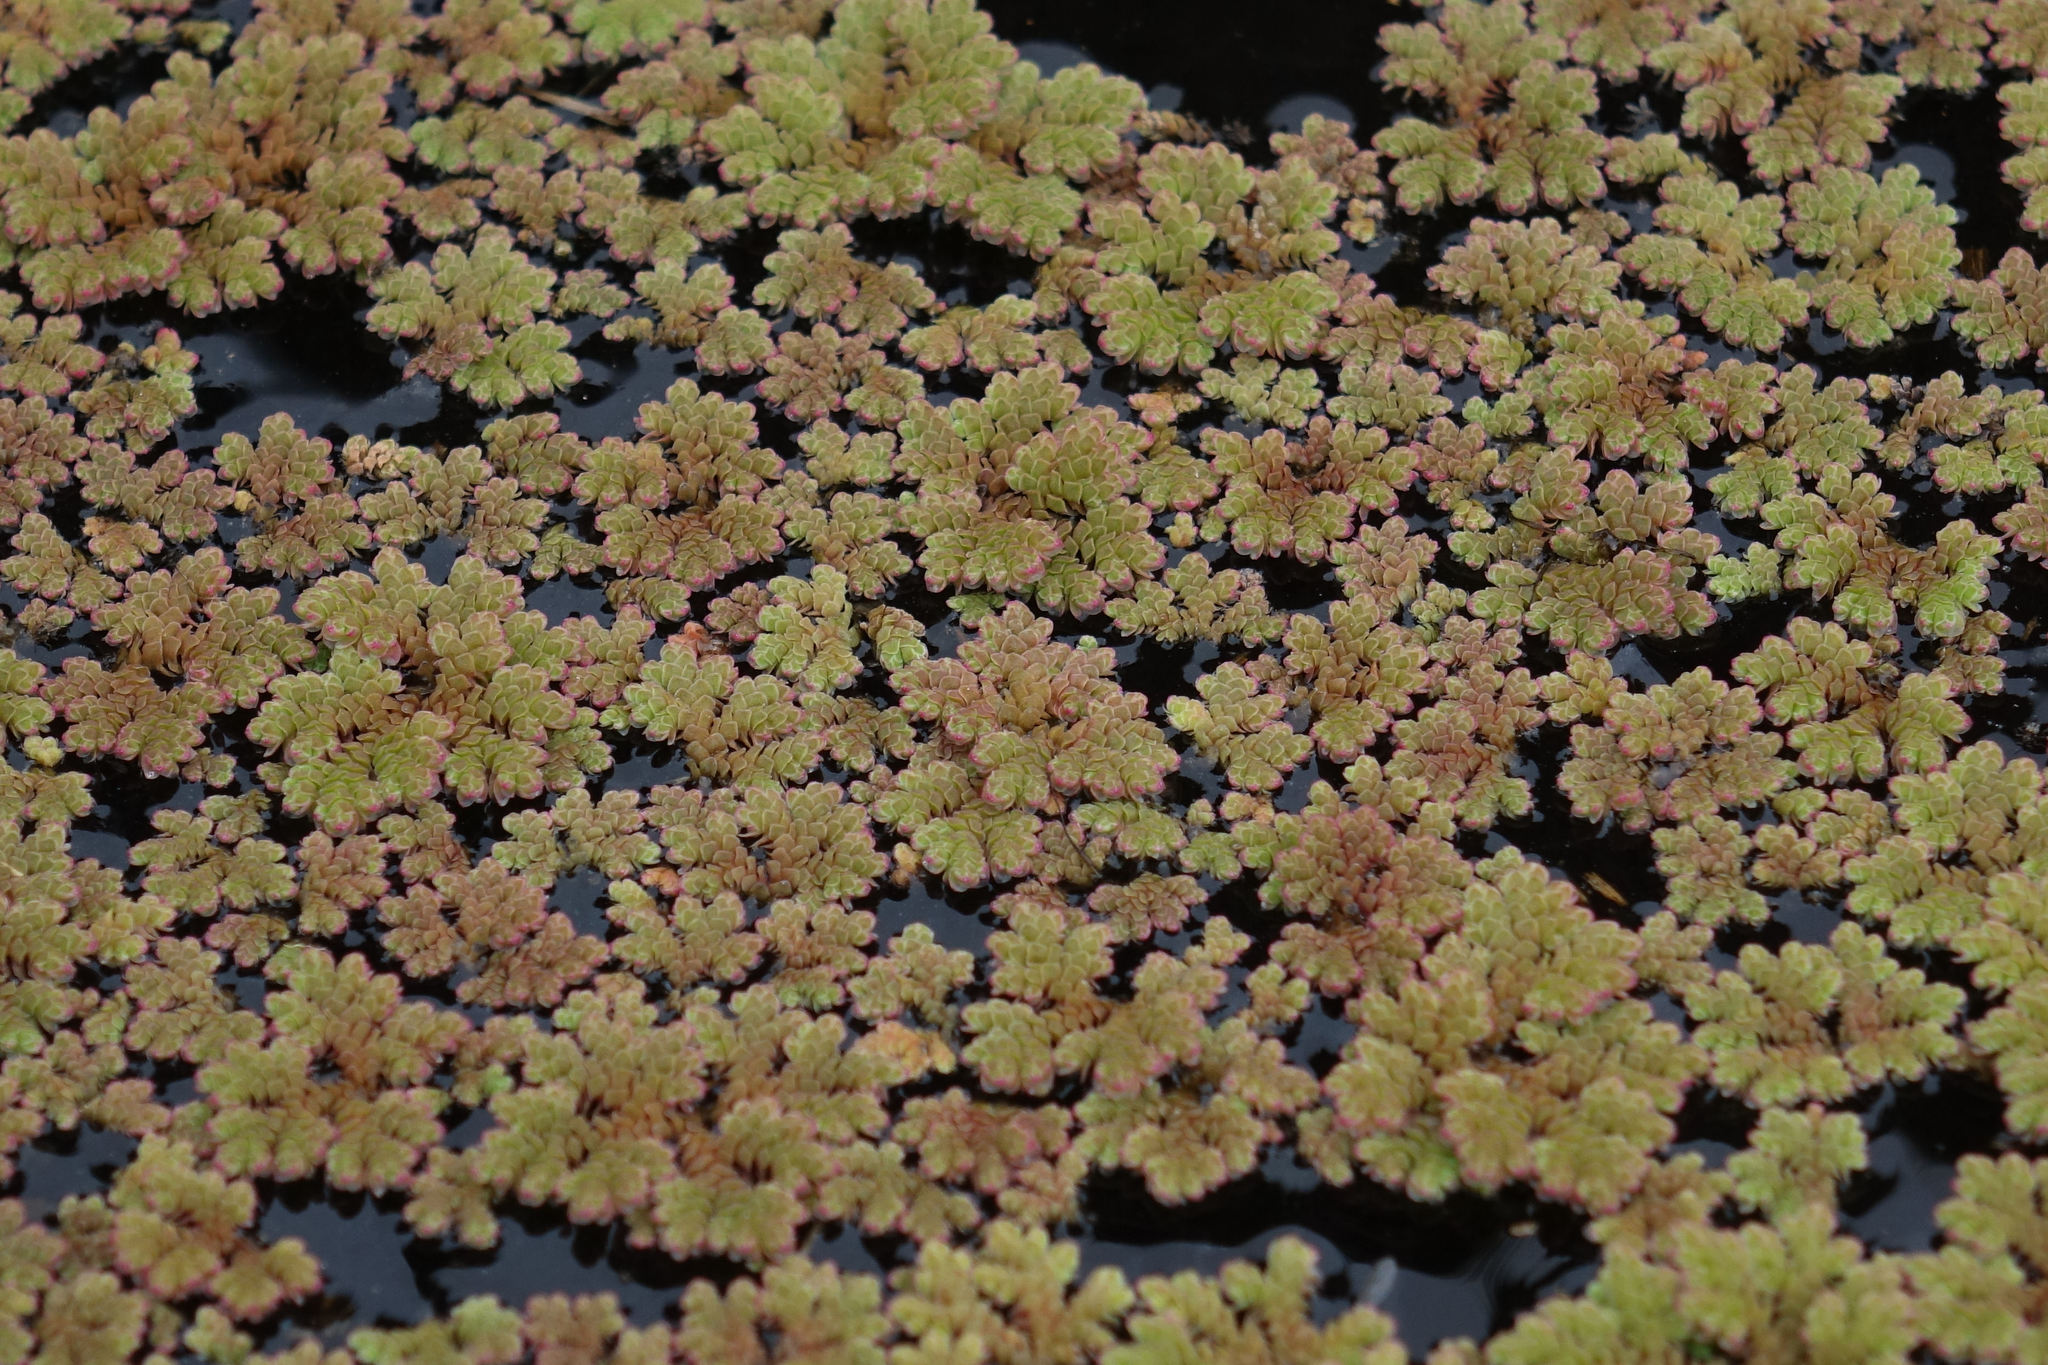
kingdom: Plantae
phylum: Tracheophyta
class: Polypodiopsida
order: Salviniales
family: Salviniaceae
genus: Azolla
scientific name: Azolla rubra
